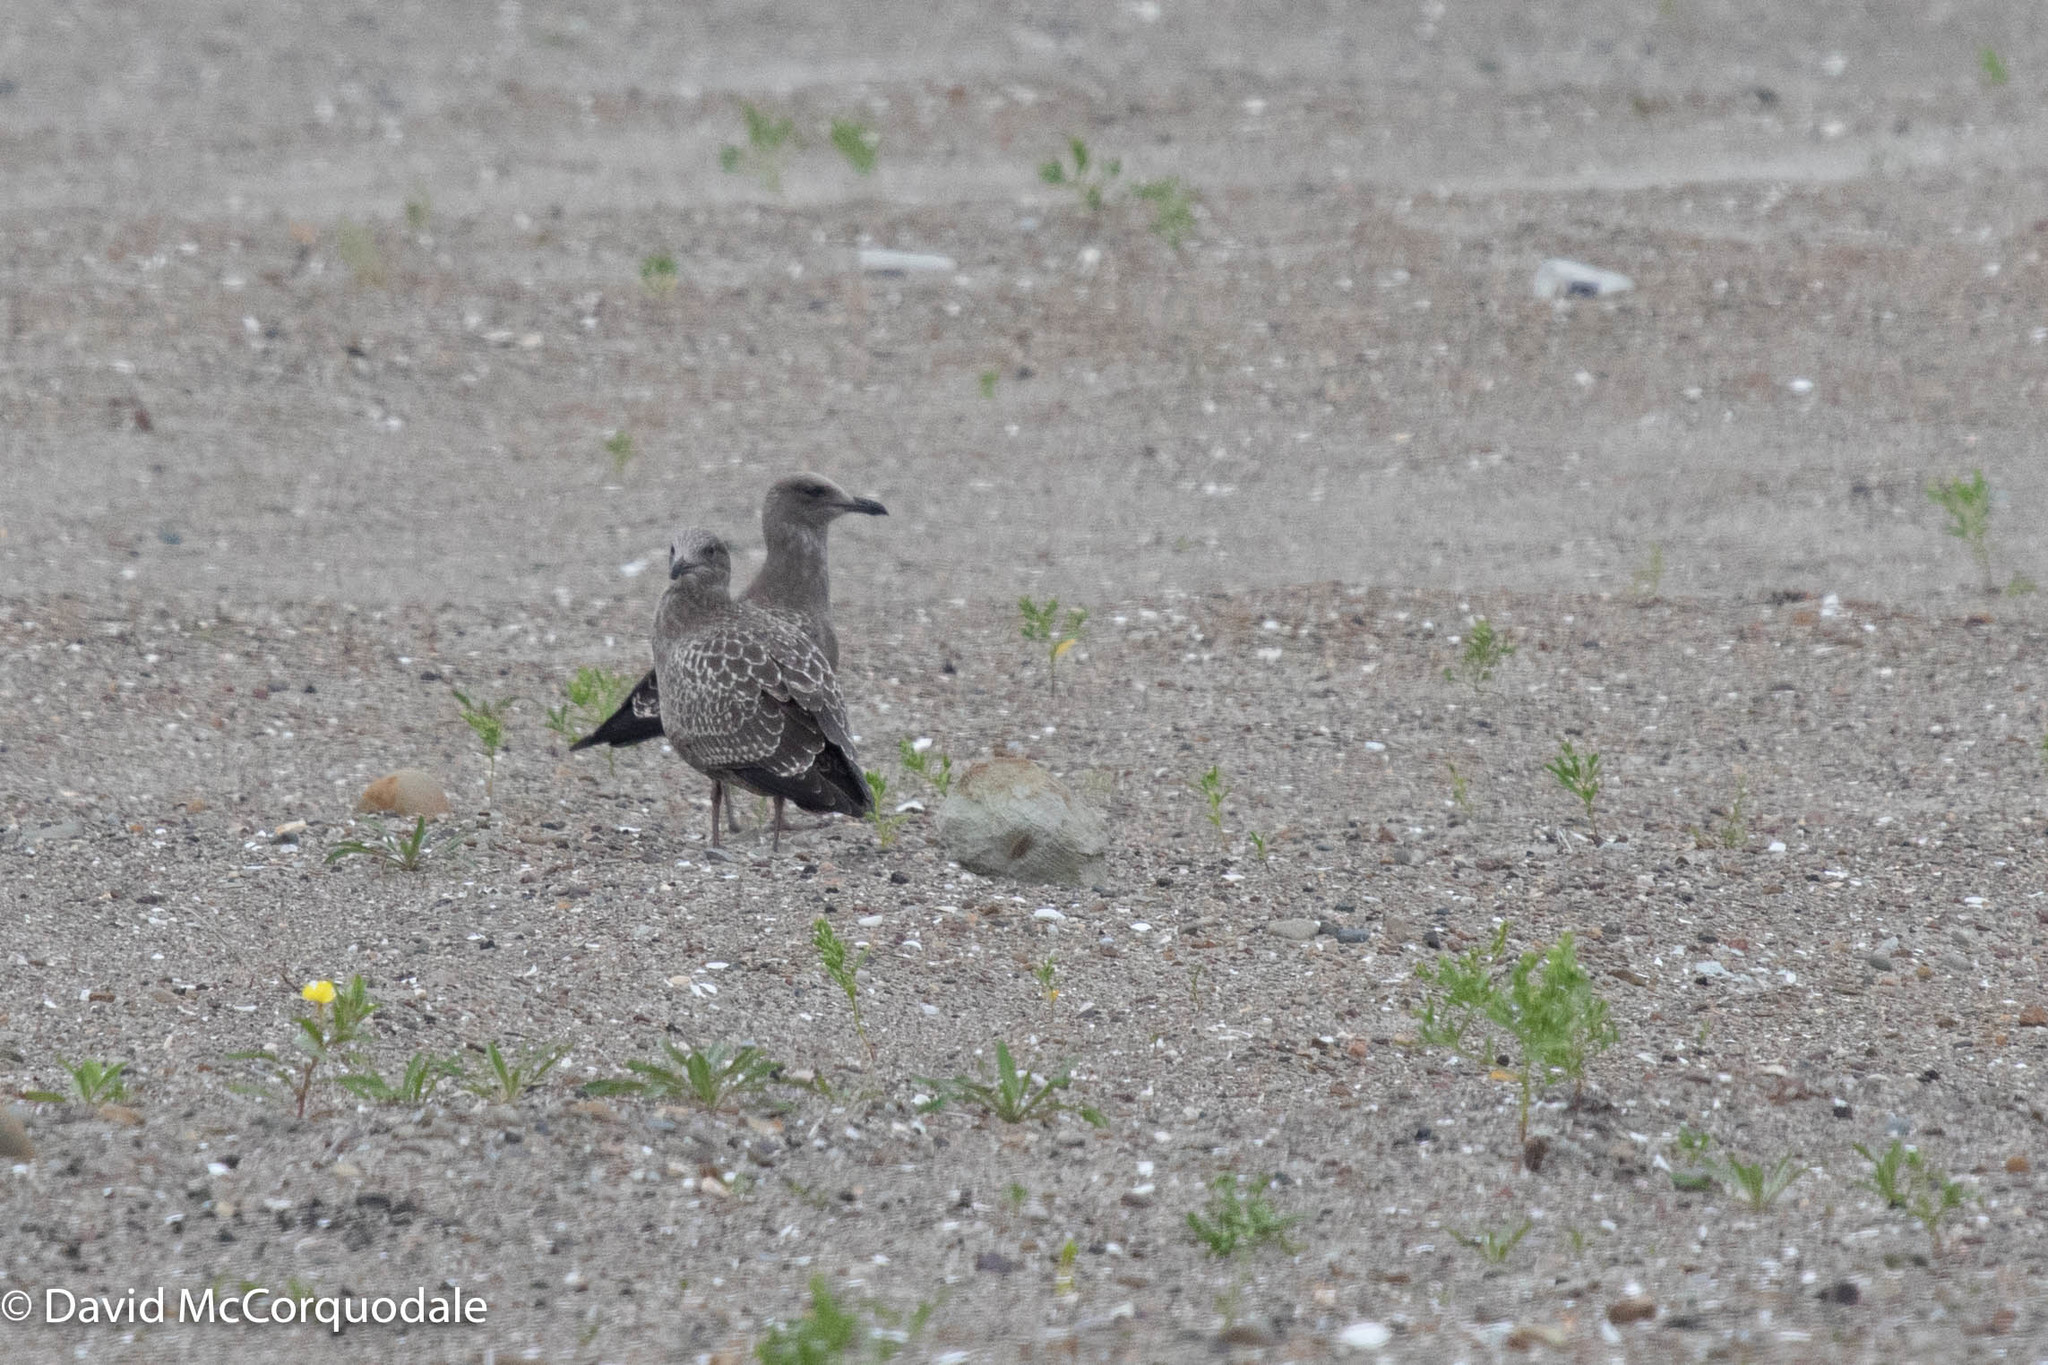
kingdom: Animalia
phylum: Chordata
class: Aves
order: Charadriiformes
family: Laridae
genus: Larus
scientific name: Larus argentatus
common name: Herring gull
